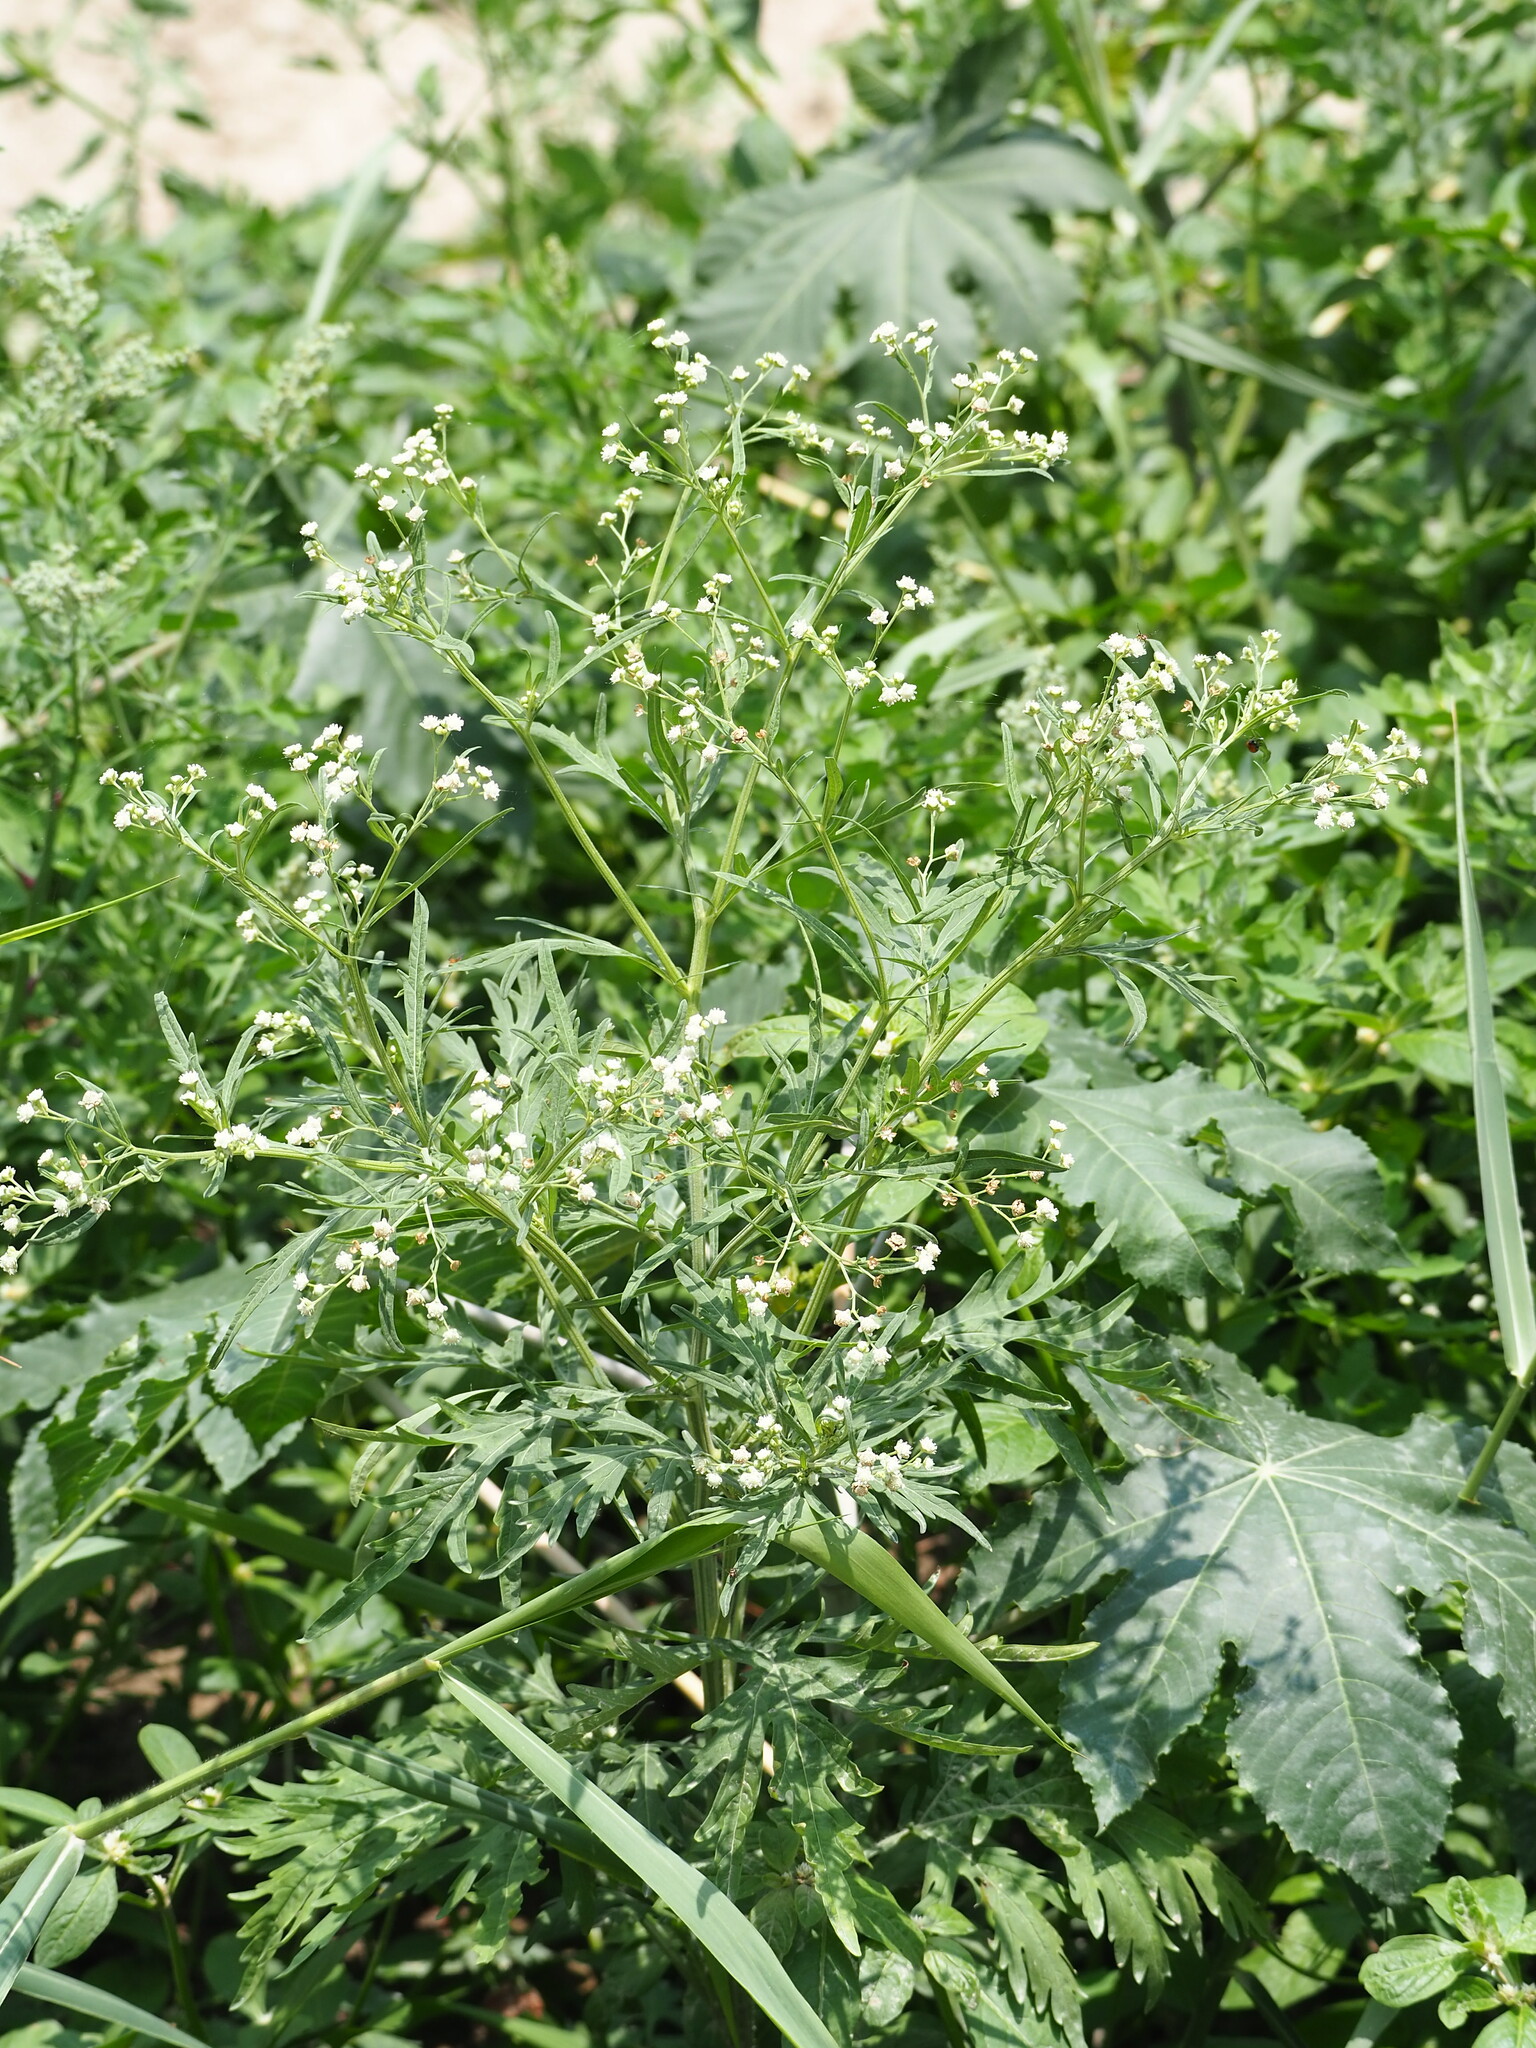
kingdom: Plantae
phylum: Tracheophyta
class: Magnoliopsida
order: Asterales
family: Asteraceae
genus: Parthenium
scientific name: Parthenium hysterophorus
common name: Santa maria feverfew
